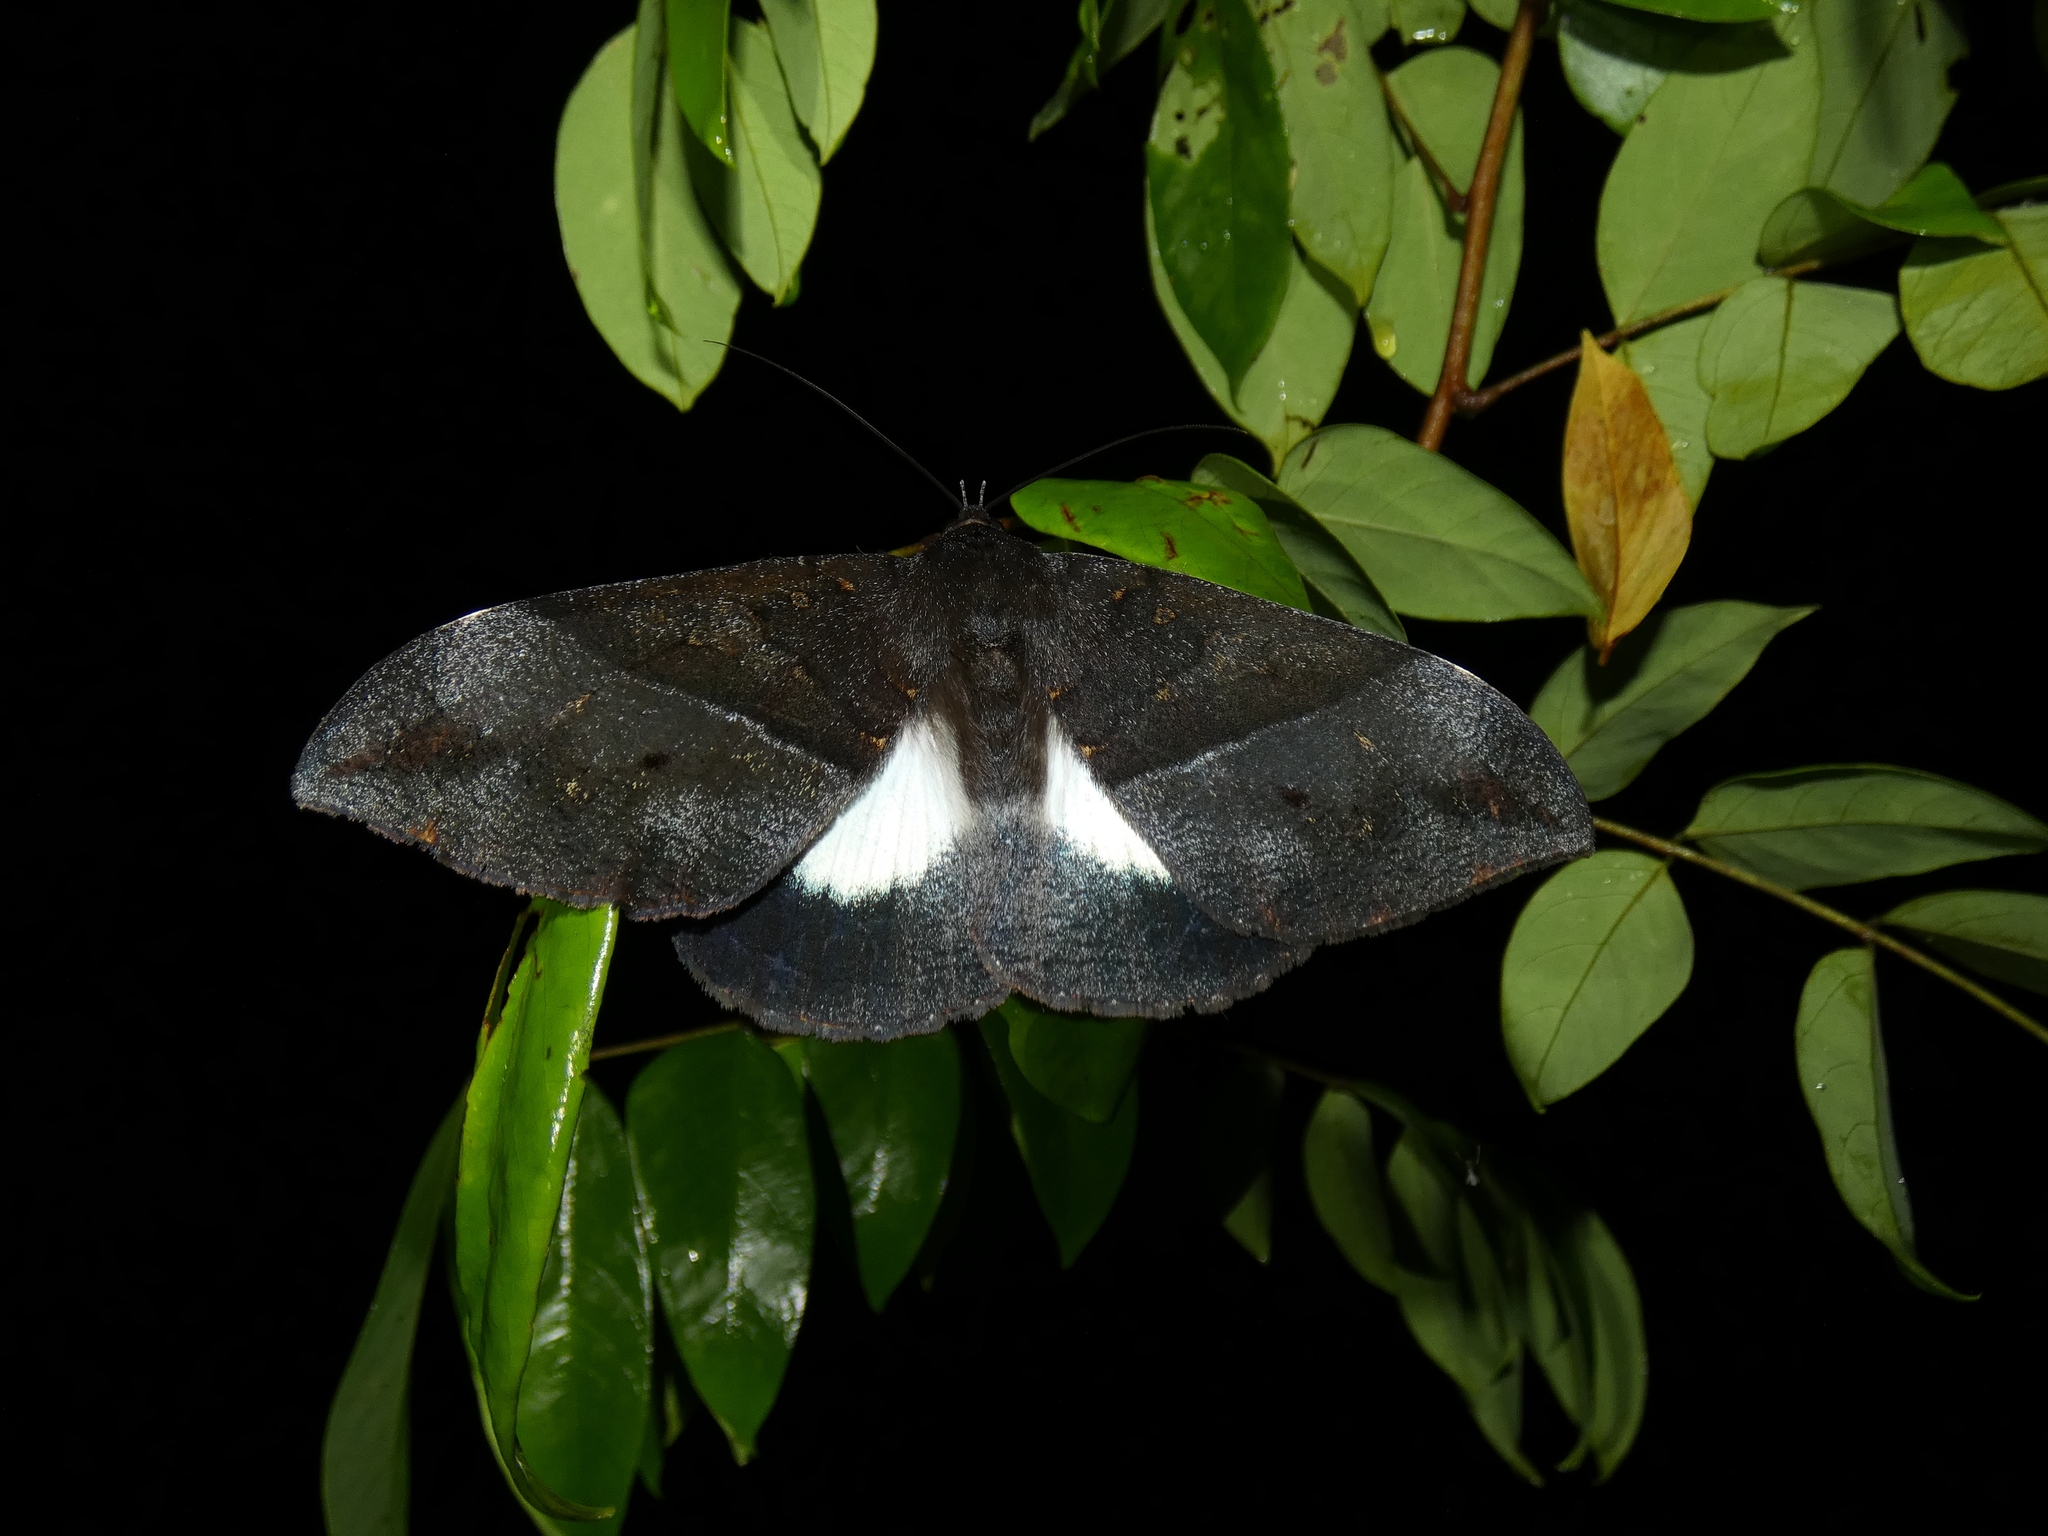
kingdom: Animalia
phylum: Arthropoda
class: Insecta
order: Lepidoptera
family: Erebidae
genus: Ischyja
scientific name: Ischyja ebusa
